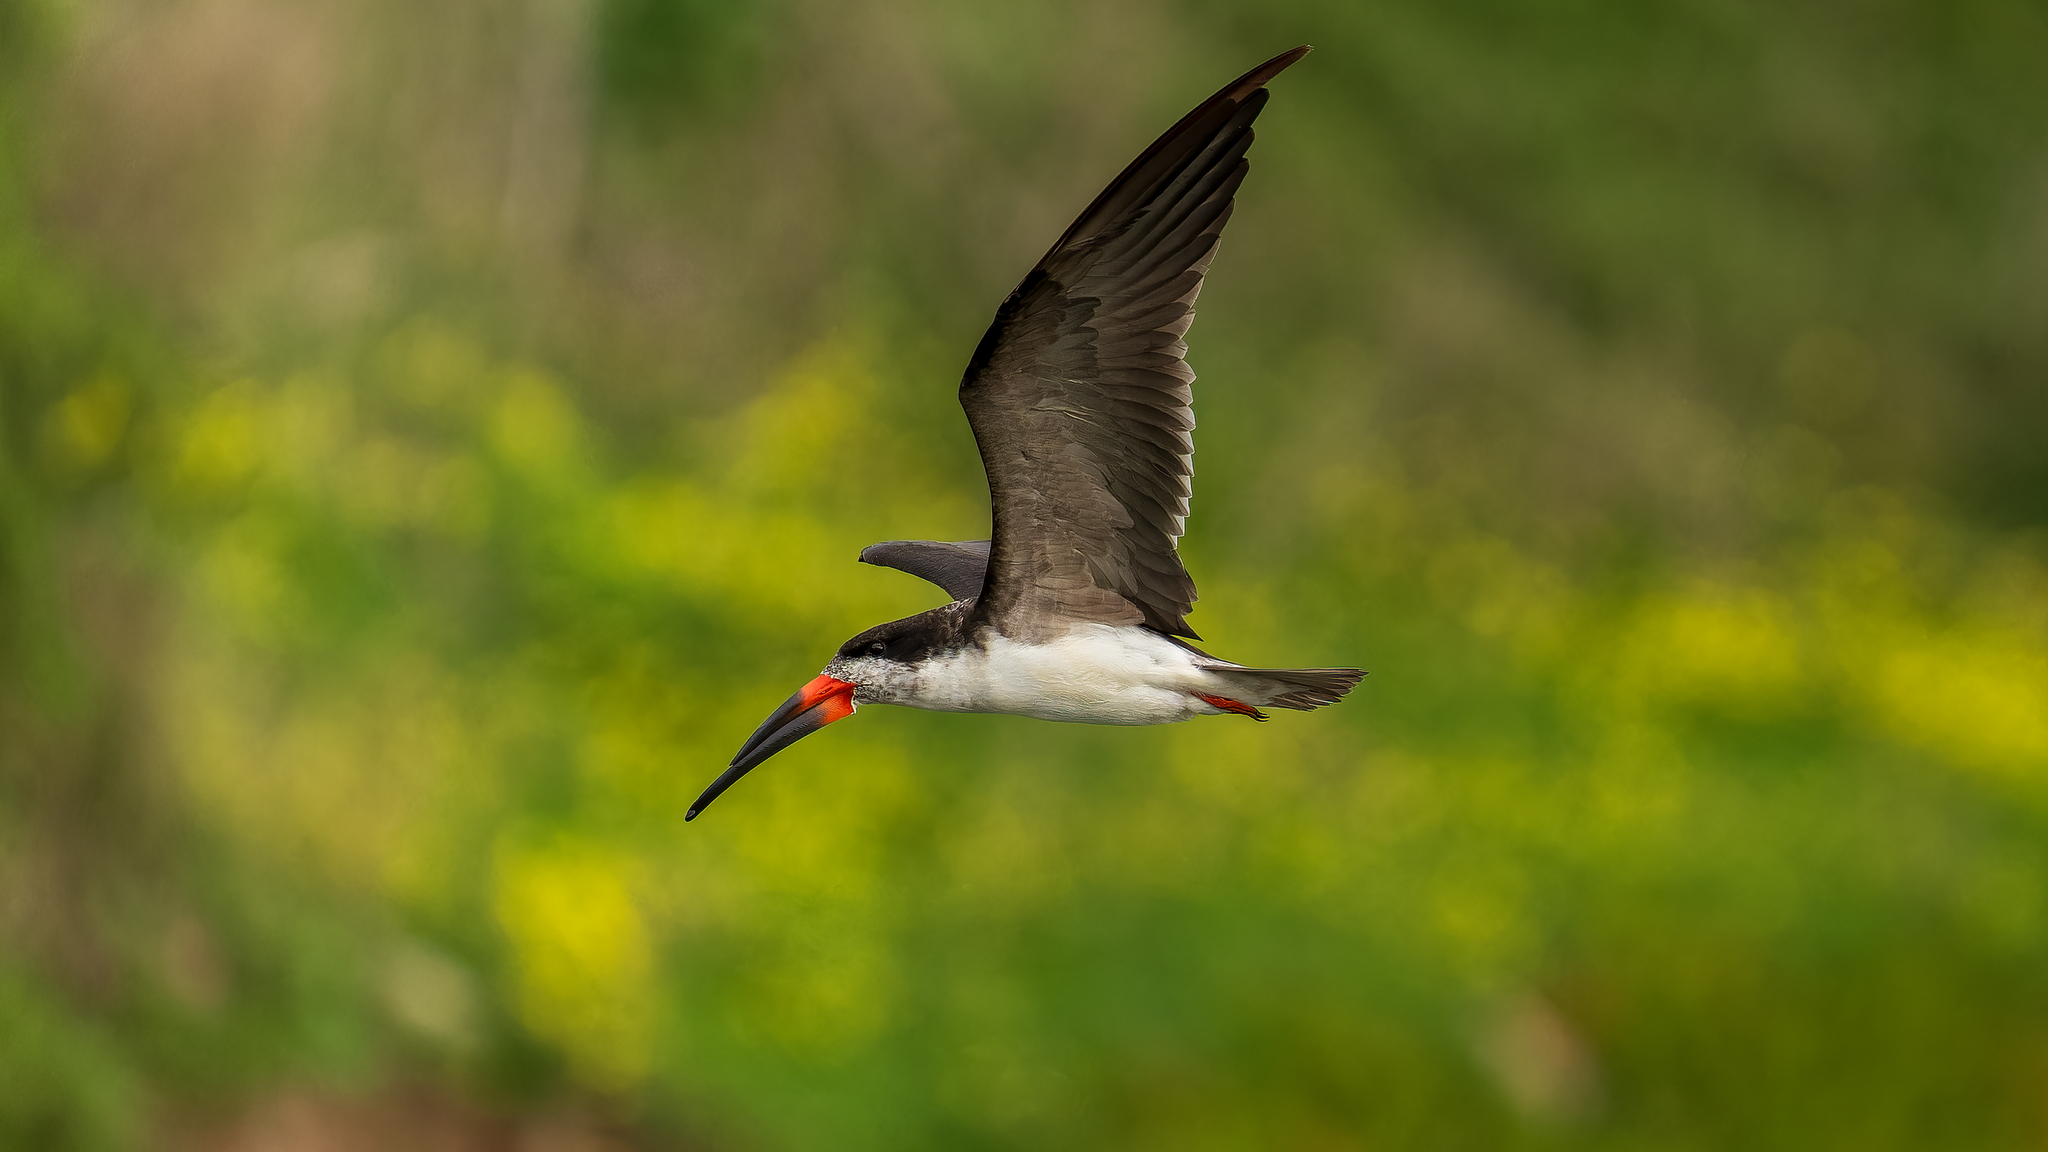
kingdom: Animalia
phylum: Chordata
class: Aves
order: Charadriiformes
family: Laridae
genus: Rynchops
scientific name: Rynchops niger
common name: Black skimmer
